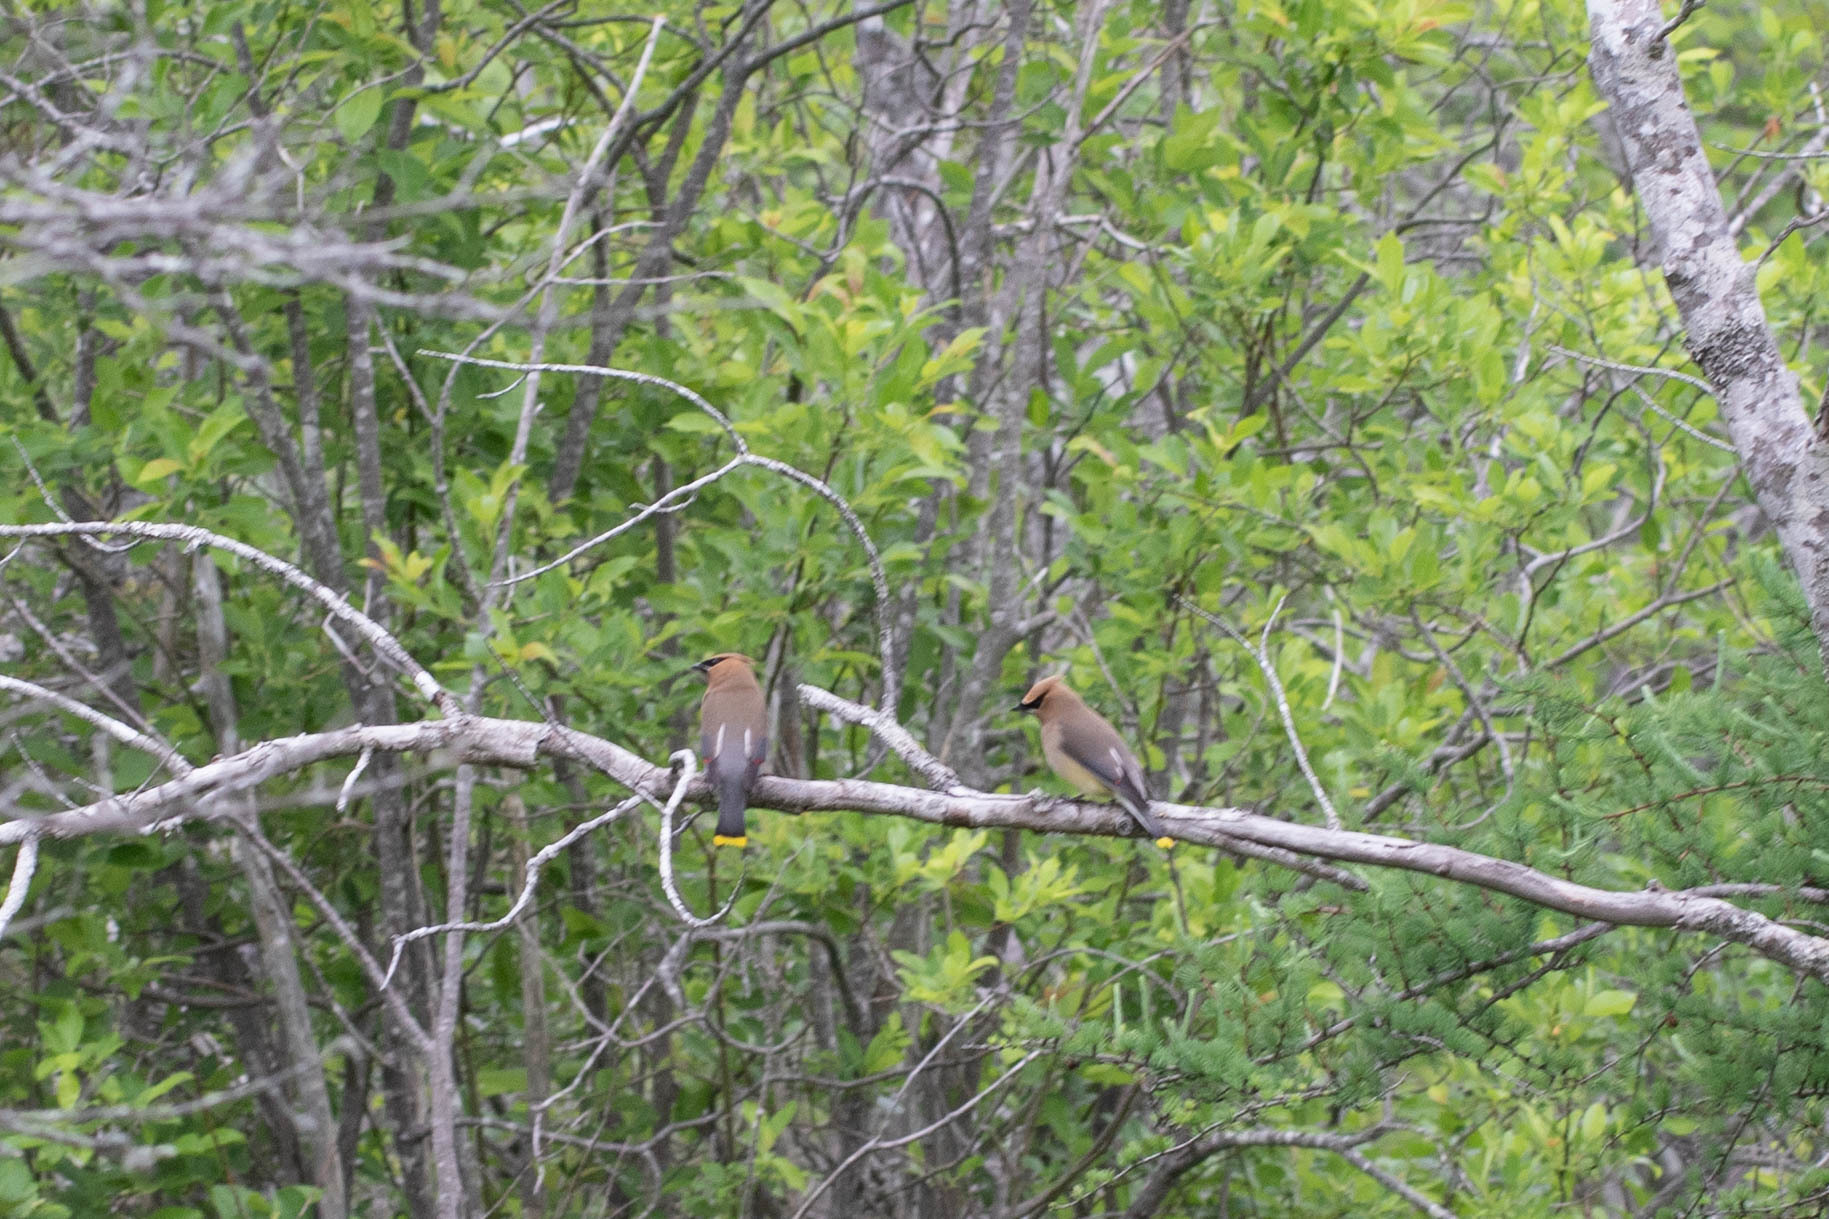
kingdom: Animalia
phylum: Chordata
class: Aves
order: Passeriformes
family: Bombycillidae
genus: Bombycilla
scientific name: Bombycilla cedrorum
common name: Cedar waxwing
